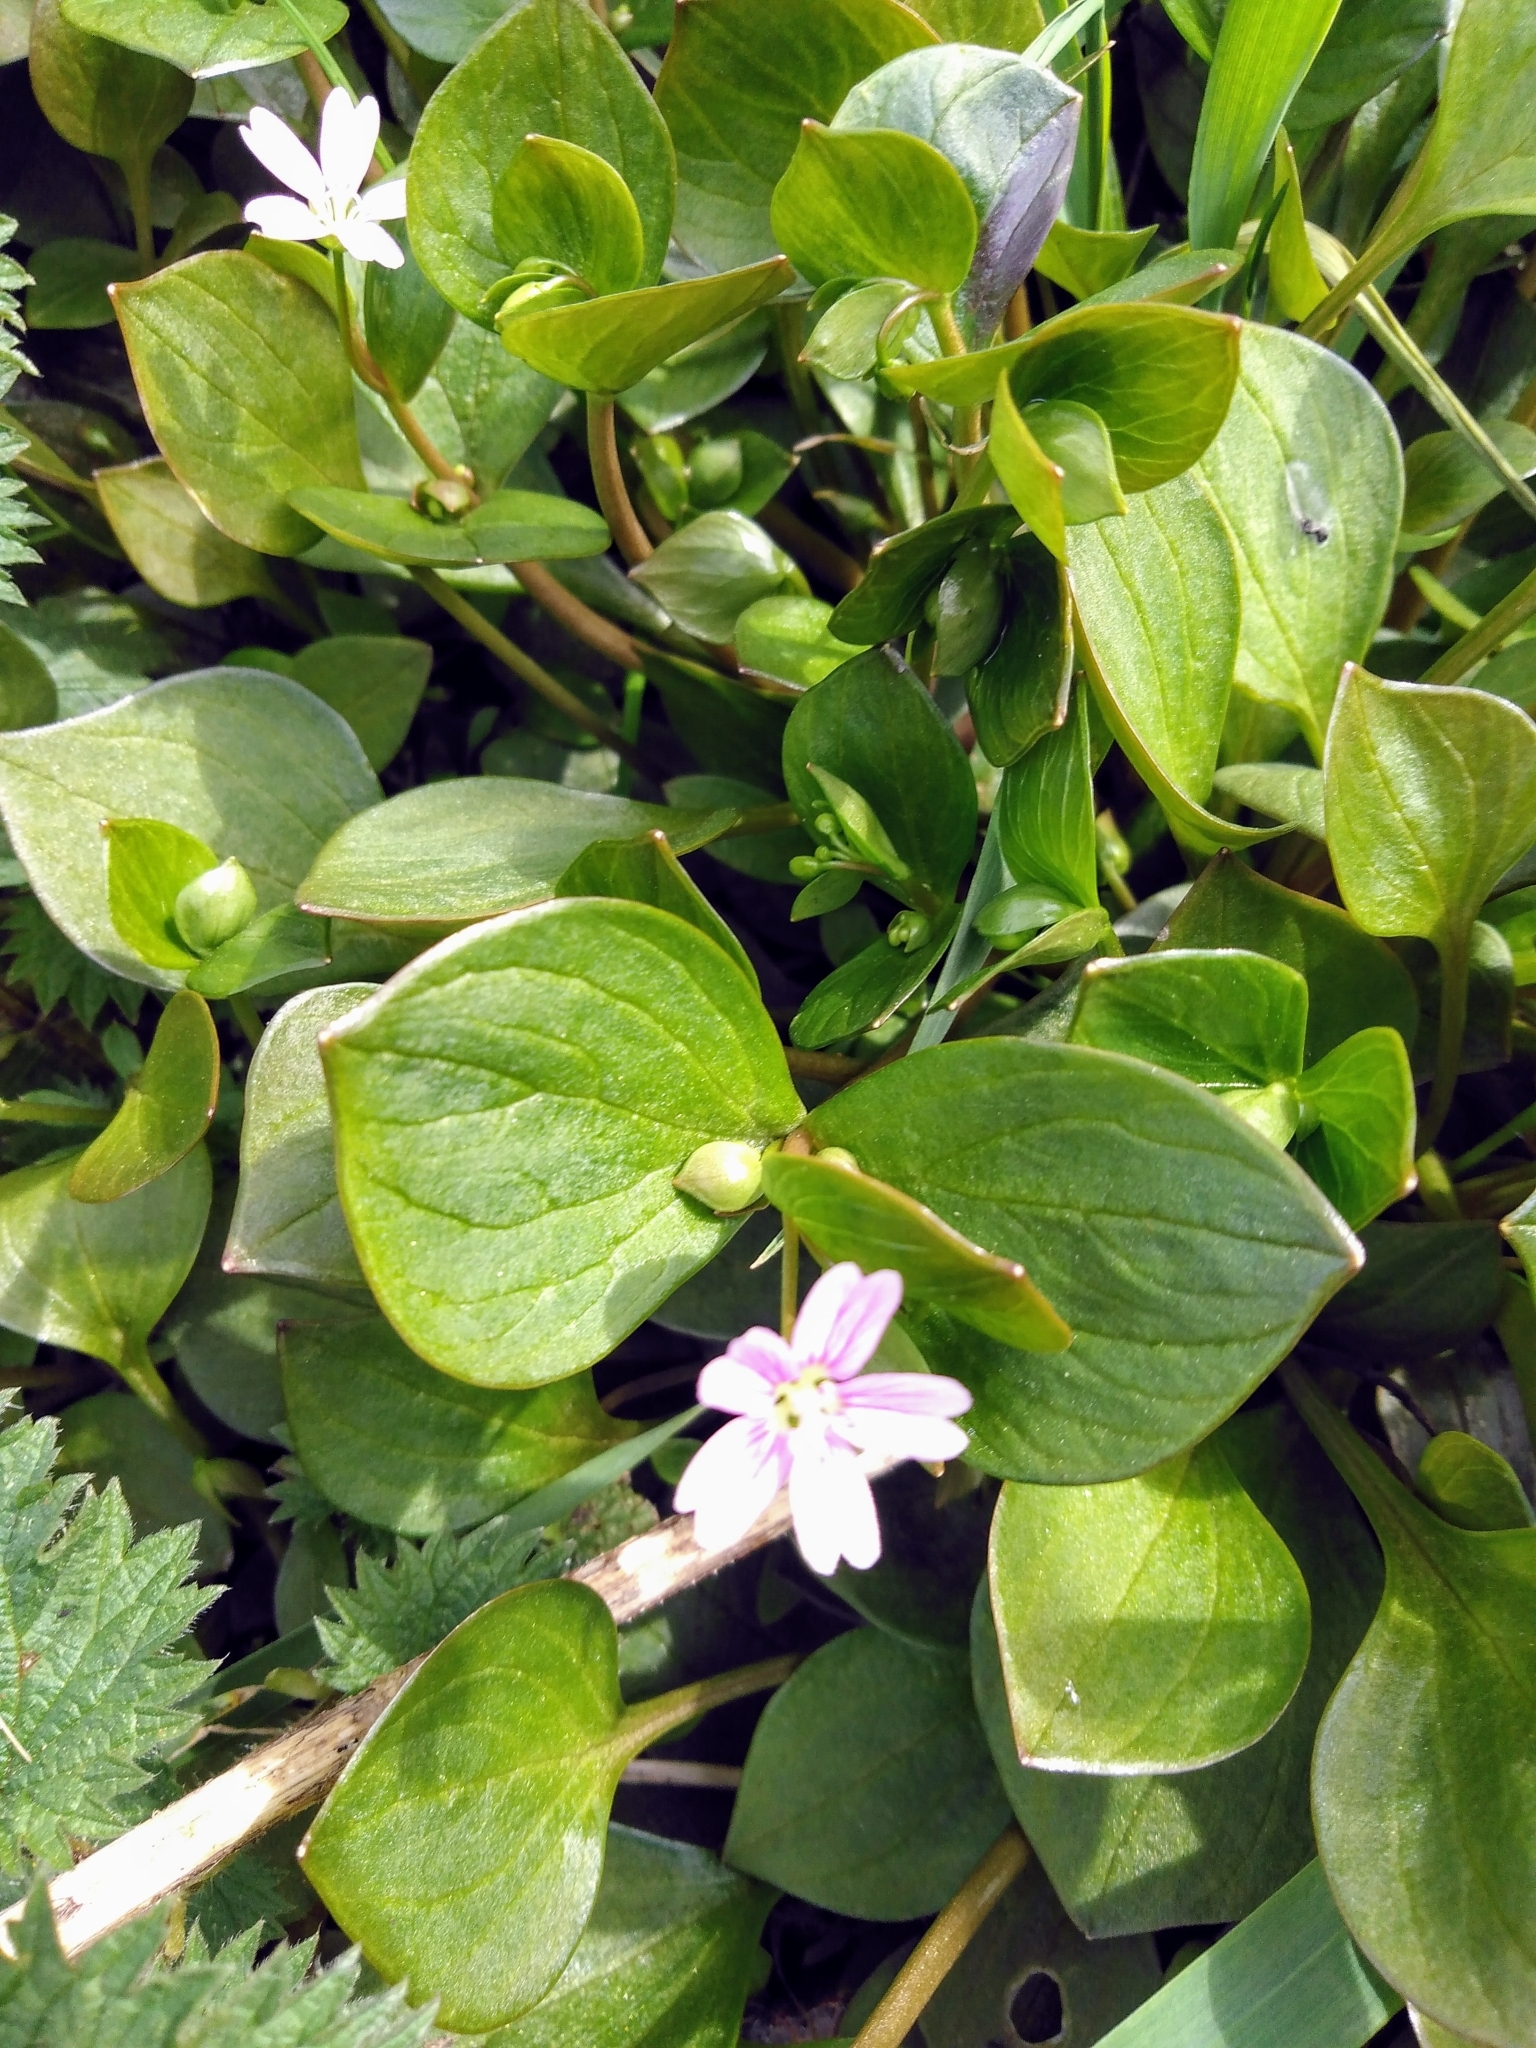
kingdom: Plantae
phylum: Tracheophyta
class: Magnoliopsida
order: Caryophyllales
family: Montiaceae
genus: Claytonia
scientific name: Claytonia sibirica
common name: Pink purslane
